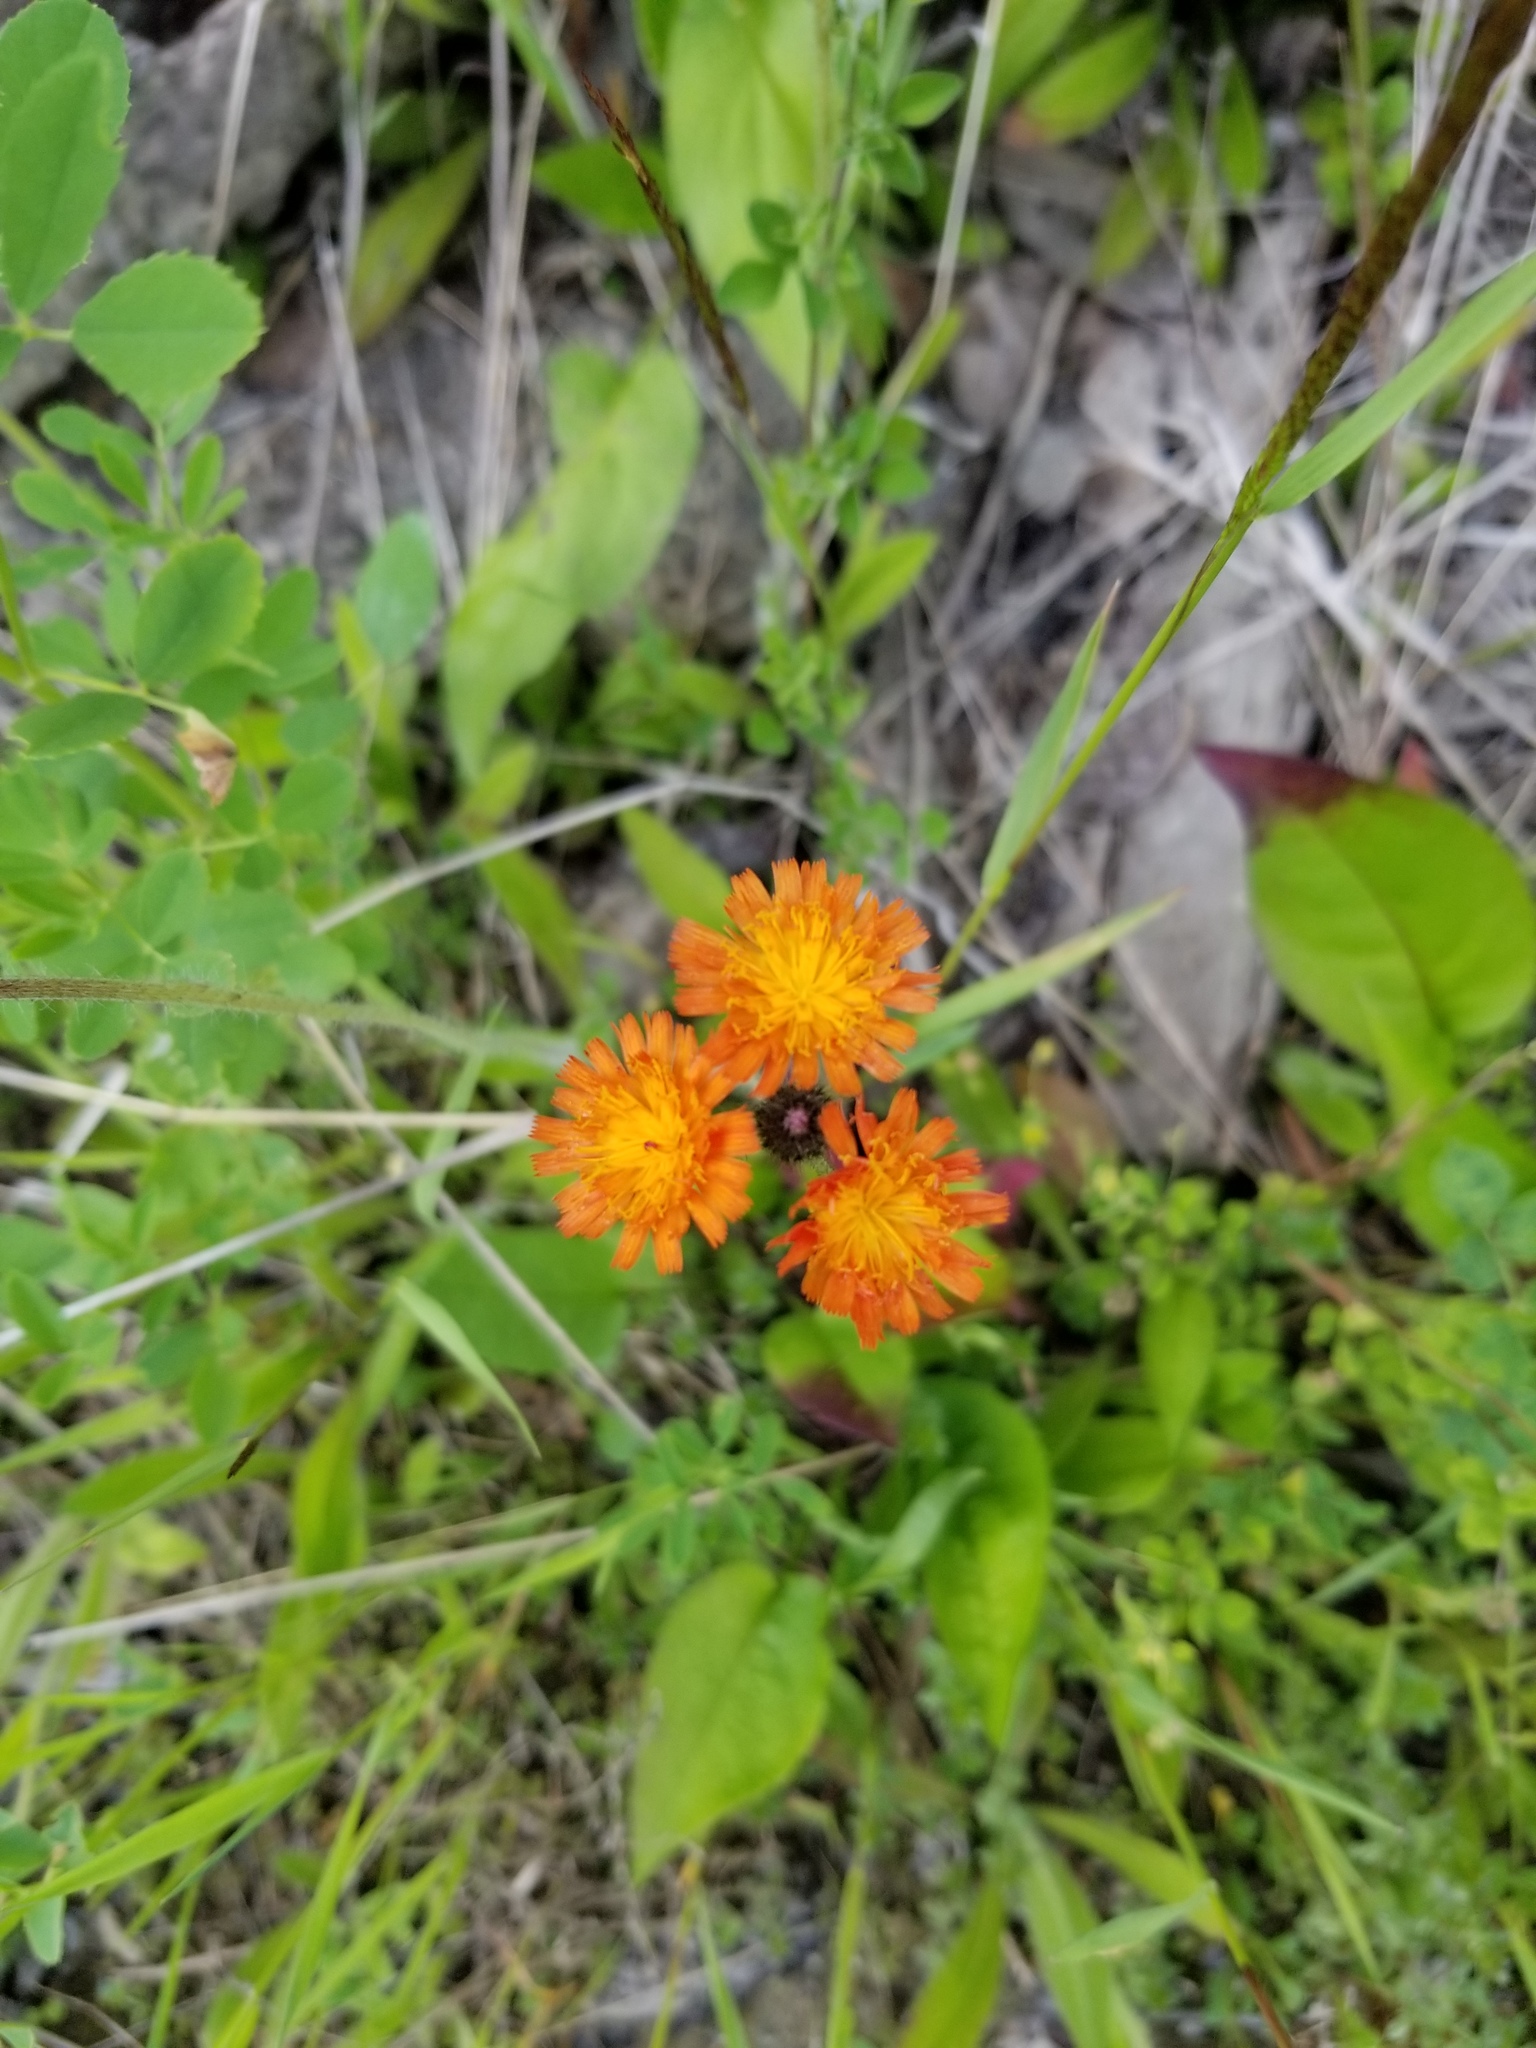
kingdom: Plantae
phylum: Tracheophyta
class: Magnoliopsida
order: Asterales
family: Asteraceae
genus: Pilosella
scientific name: Pilosella aurantiaca
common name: Fox-and-cubs
